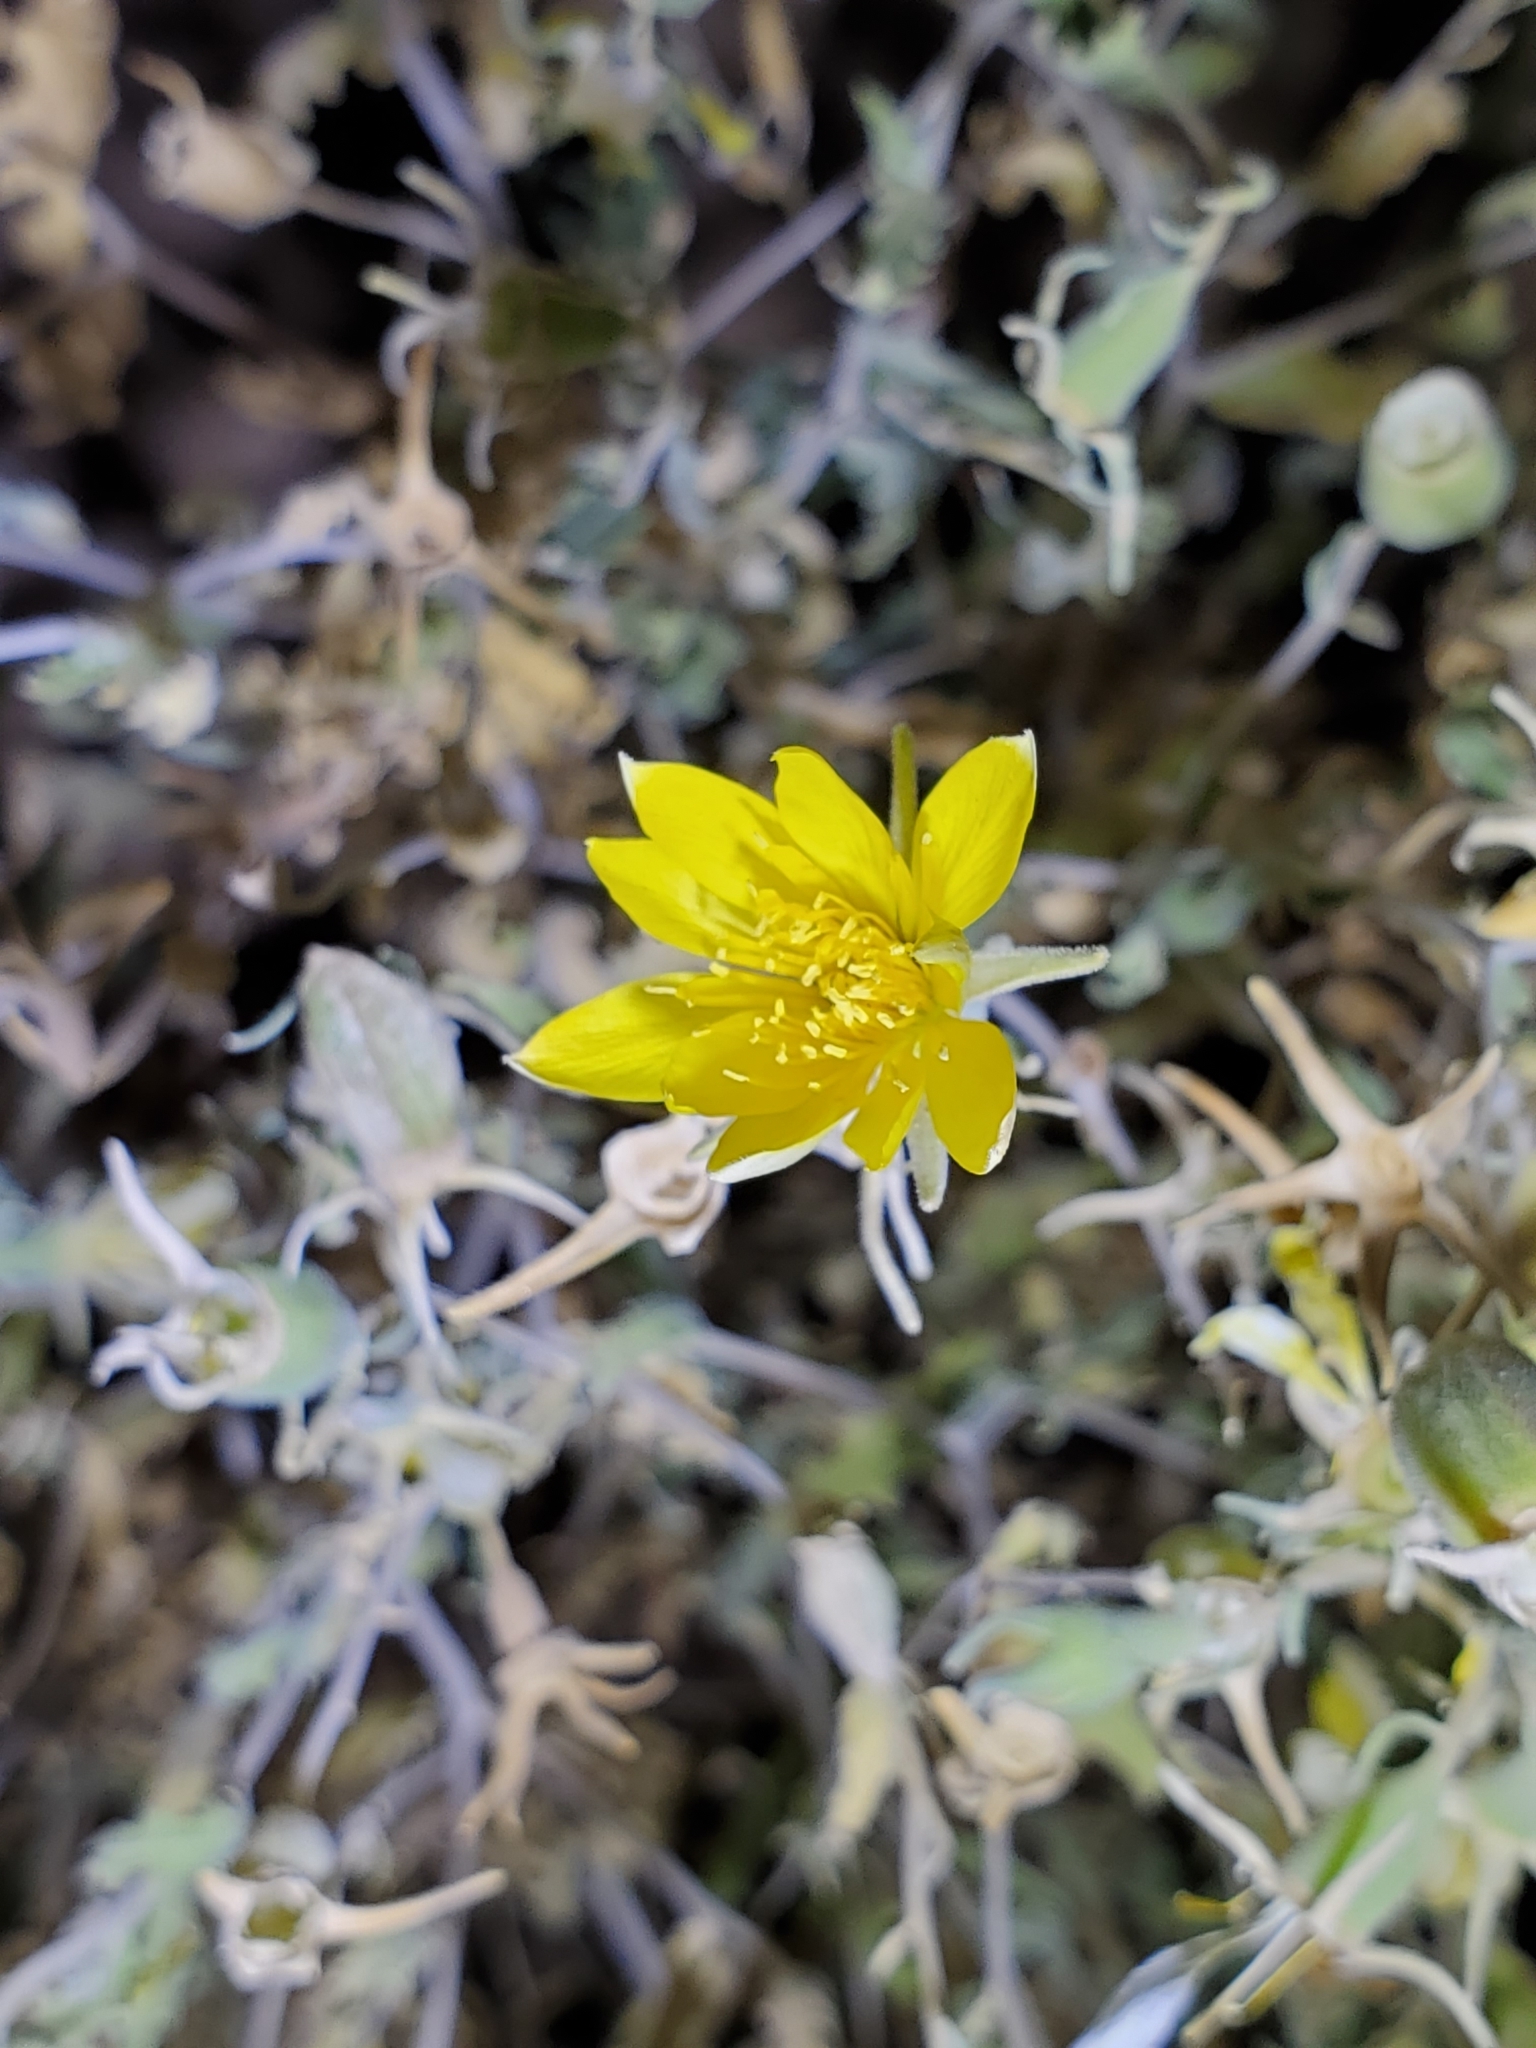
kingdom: Plantae
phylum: Tracheophyta
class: Magnoliopsida
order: Cornales
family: Loasaceae
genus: Mentzelia
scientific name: Mentzelia longiloba
